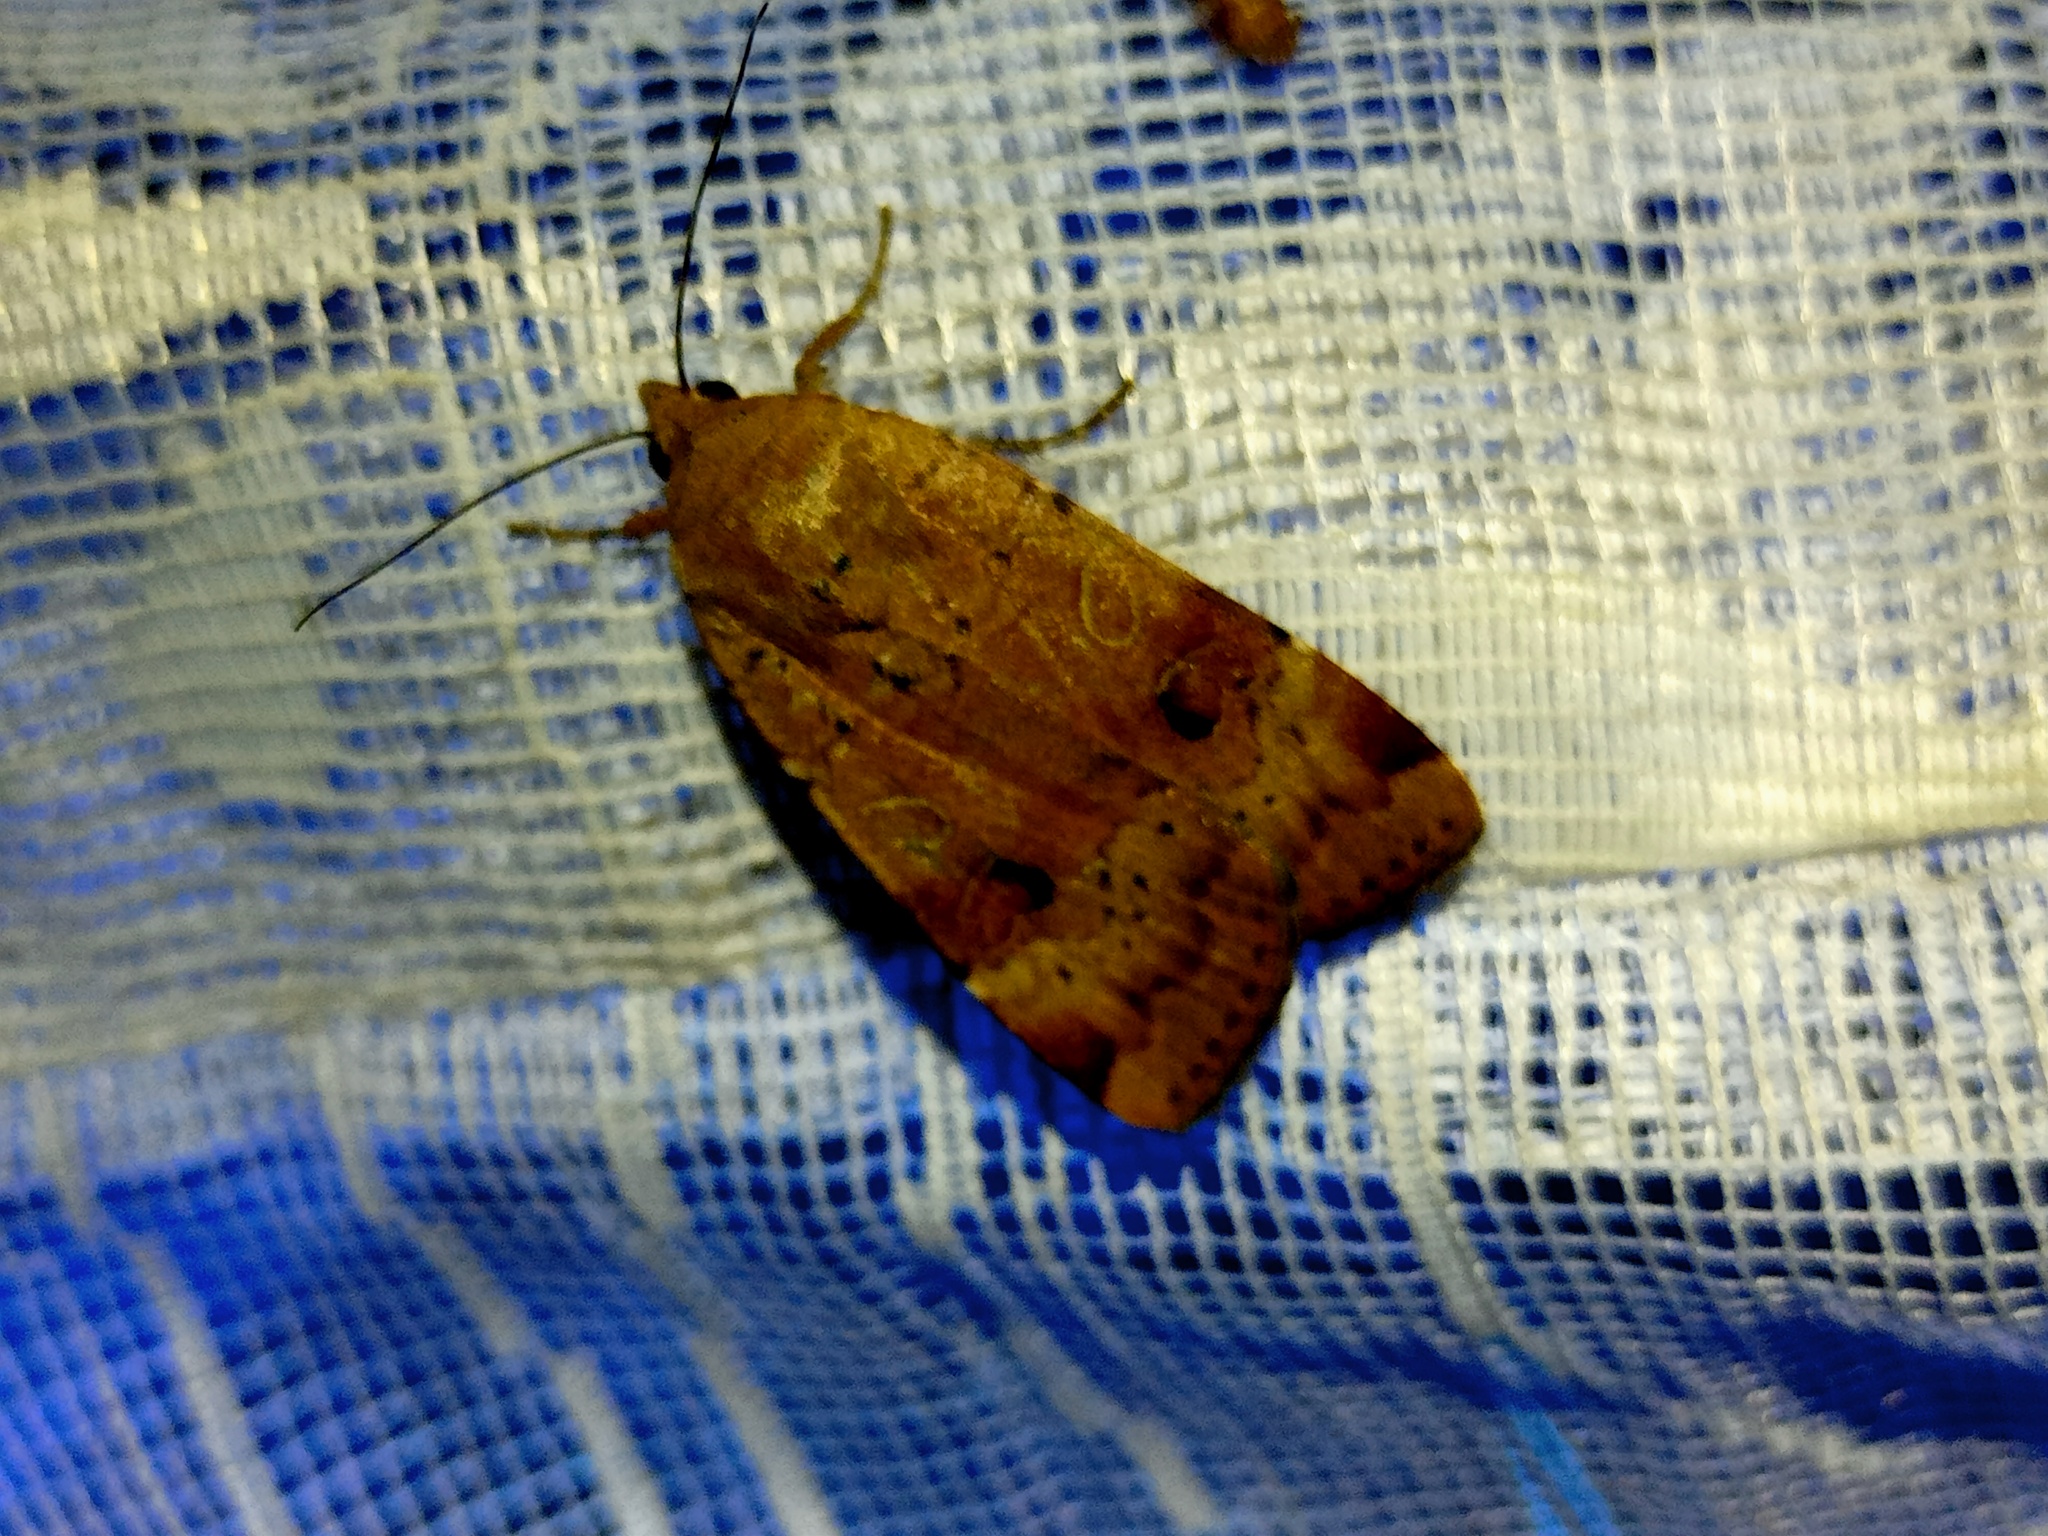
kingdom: Animalia
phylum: Arthropoda
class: Insecta
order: Lepidoptera
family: Noctuidae
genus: Noctua
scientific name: Noctua interposita
